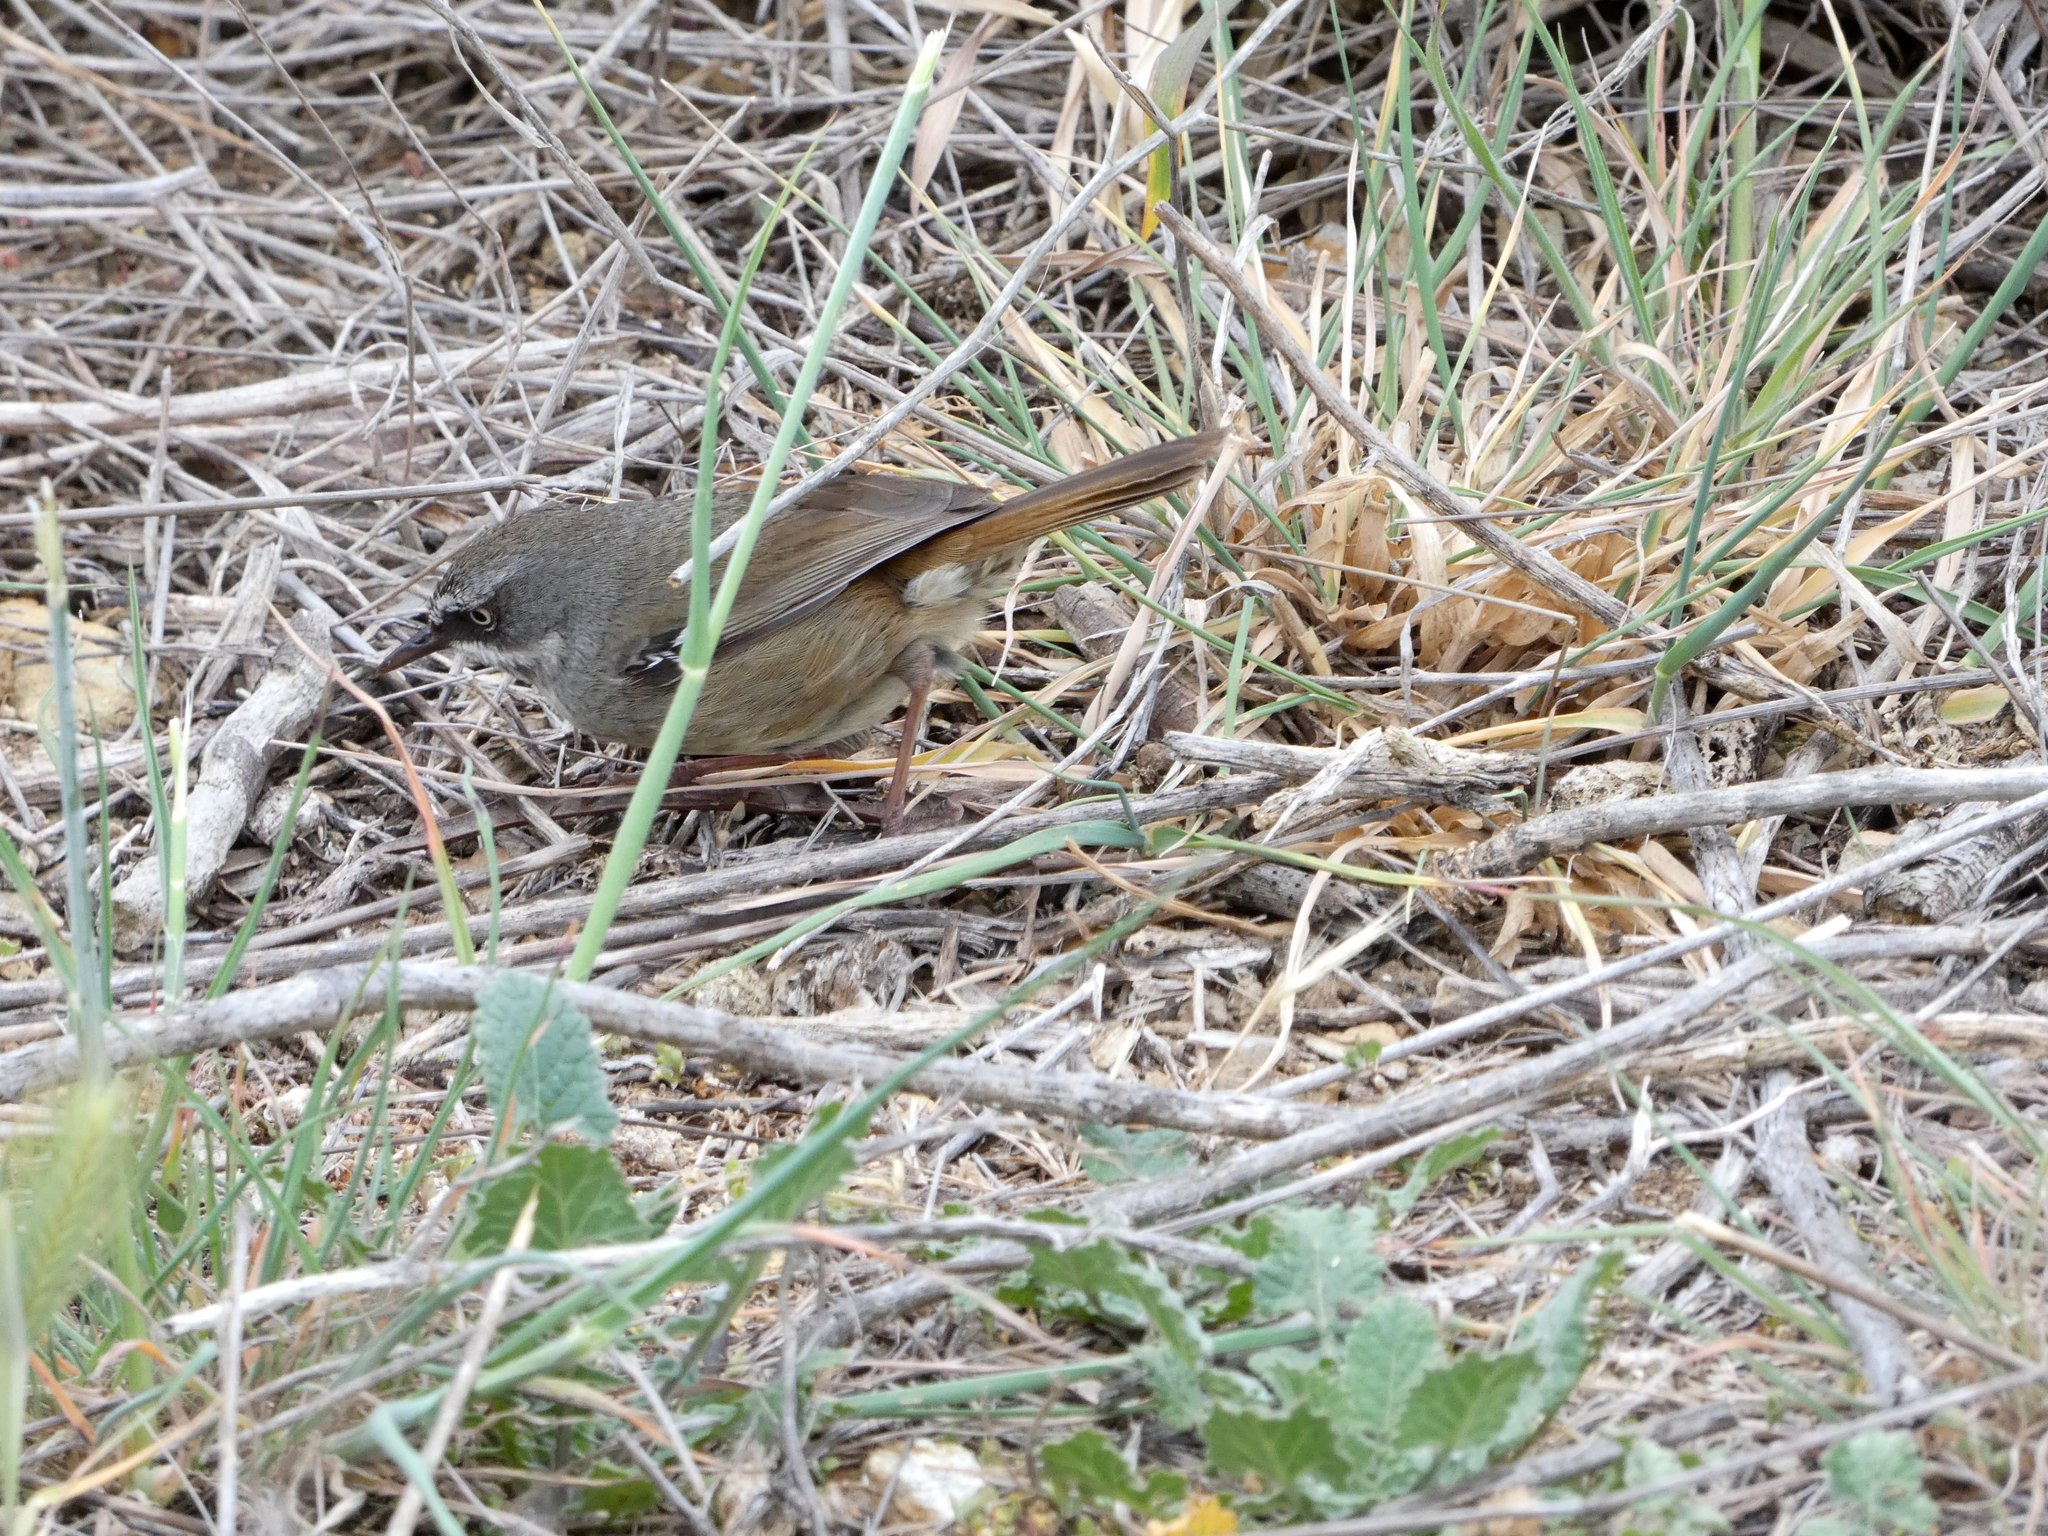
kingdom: Animalia
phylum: Chordata
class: Aves
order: Passeriformes
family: Acanthizidae
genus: Sericornis
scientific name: Sericornis frontalis
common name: White-browed scrubwren
